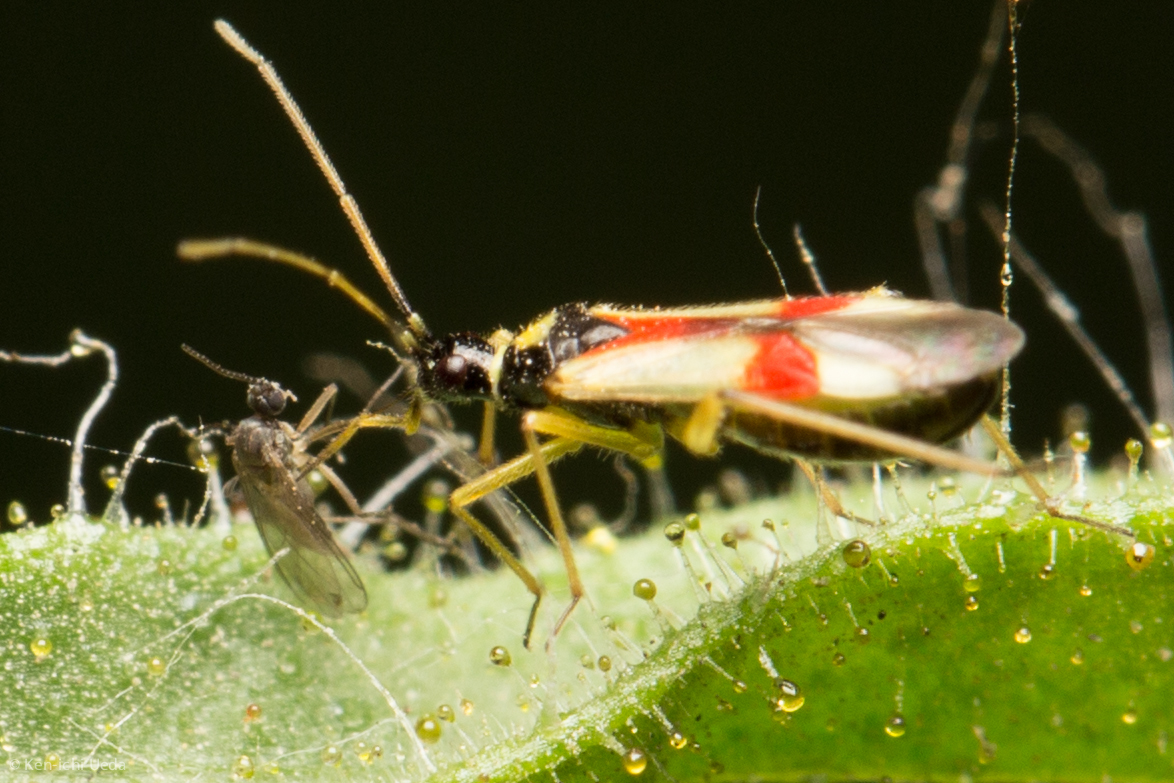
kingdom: Animalia
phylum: Arthropoda
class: Insecta
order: Hemiptera
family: Miridae
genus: Tupiocoris
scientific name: Tupiocoris californicus
